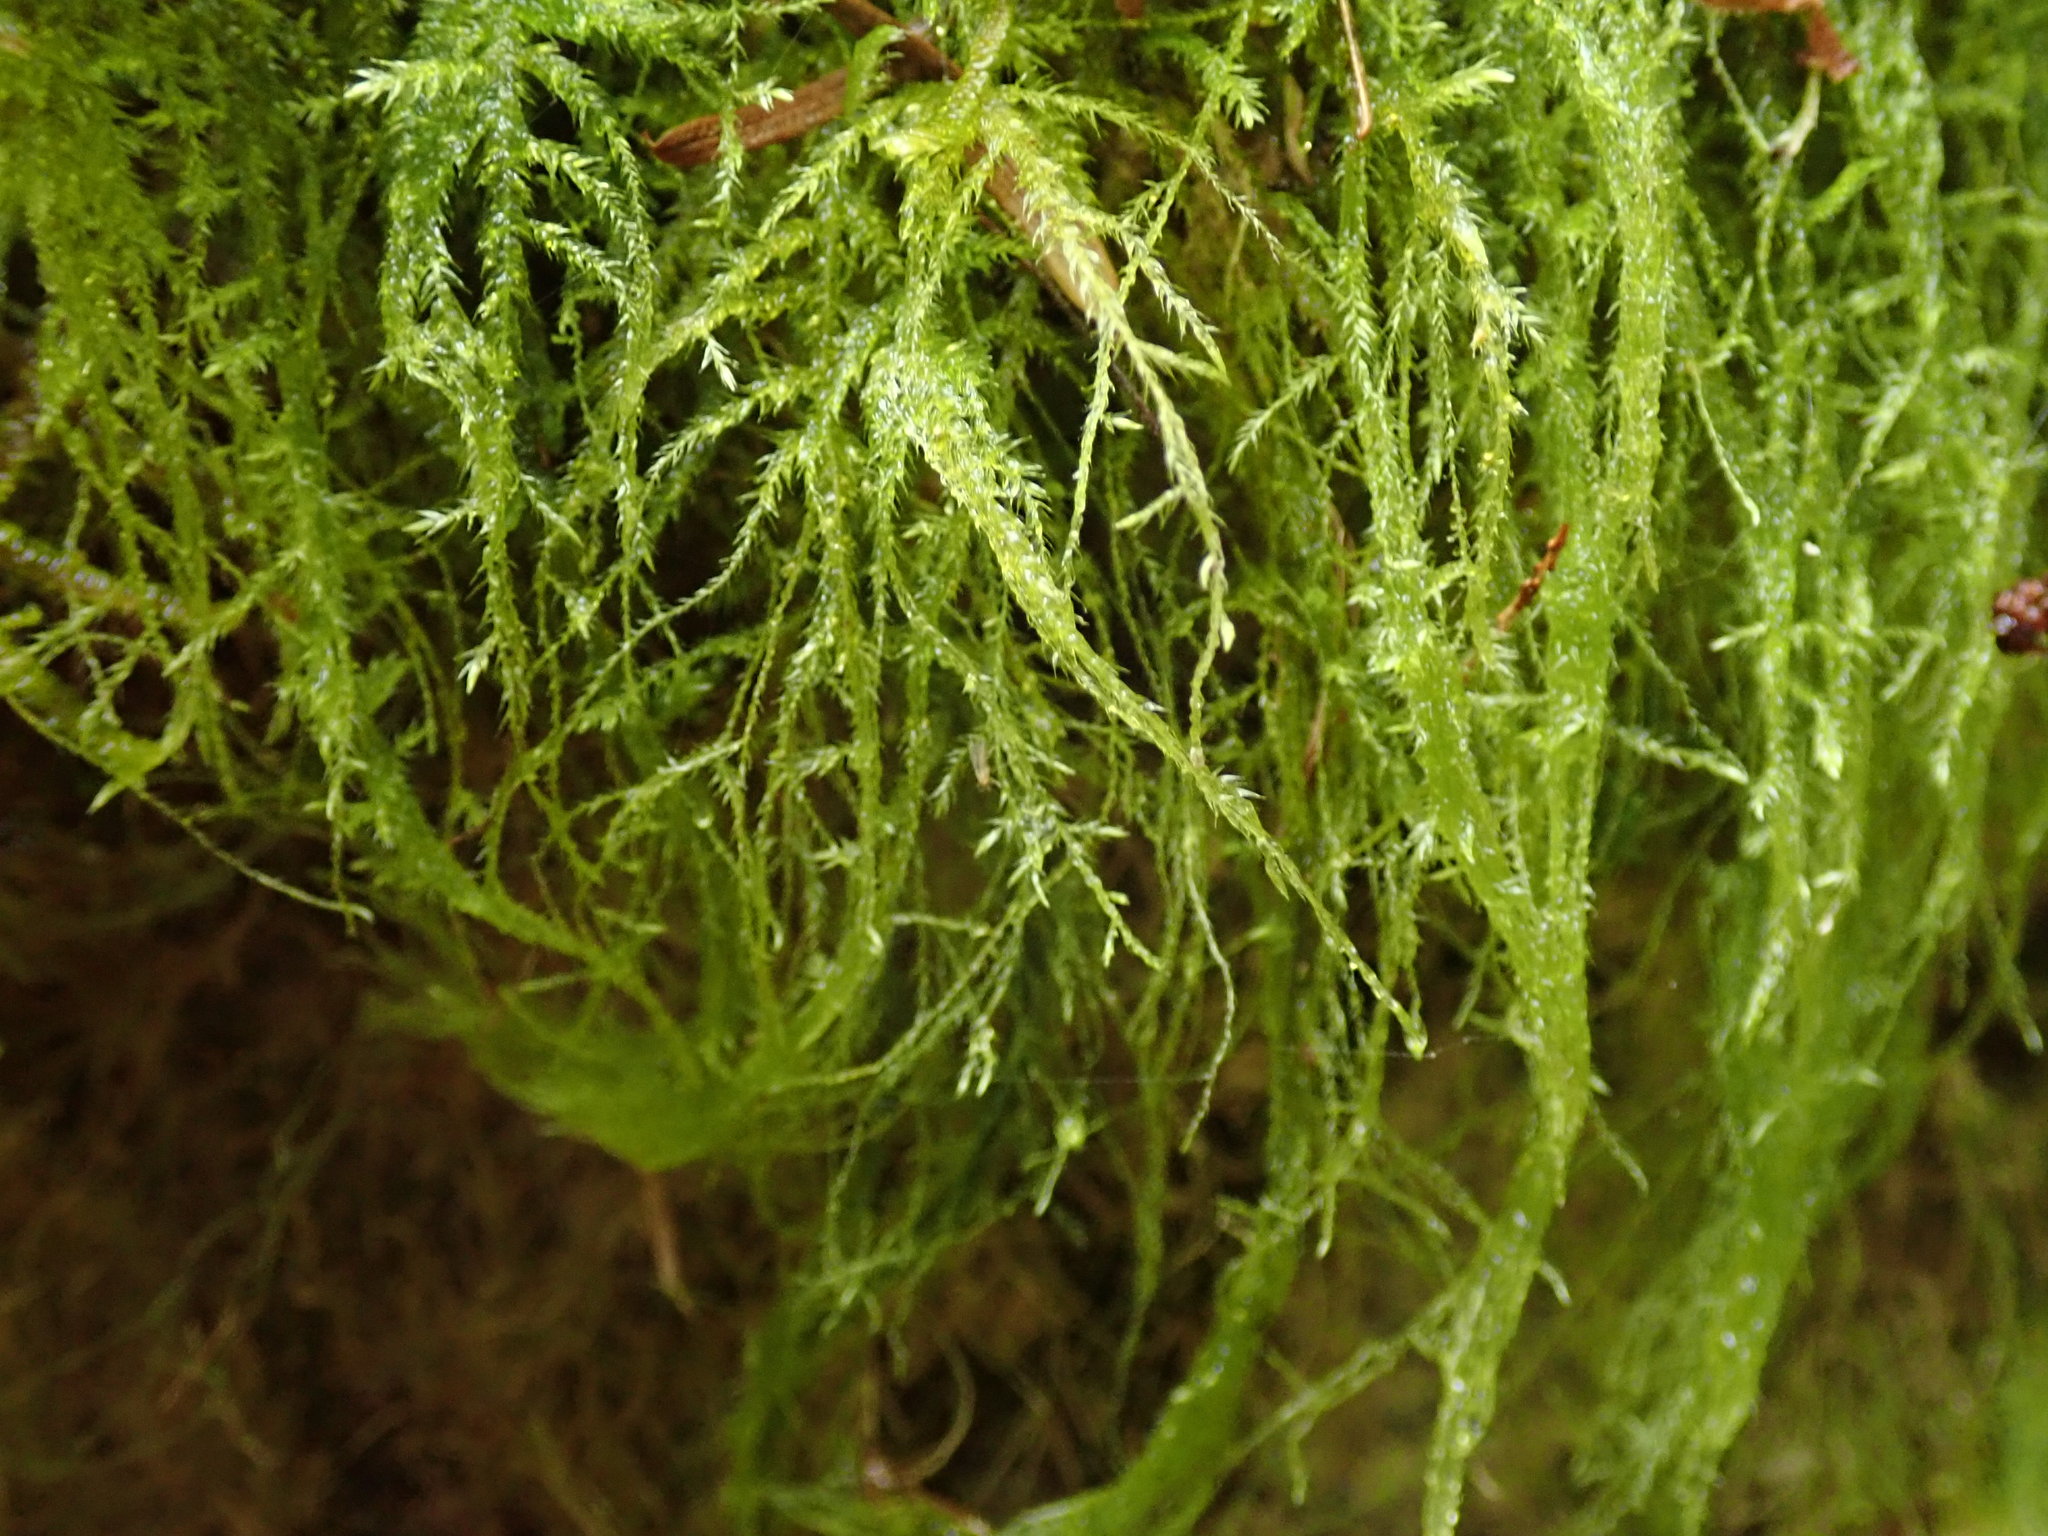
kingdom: Plantae
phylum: Bryophyta
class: Bryopsida
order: Hypnales
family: Lembophyllaceae
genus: Pseudisothecium
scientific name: Pseudisothecium stoloniferum
